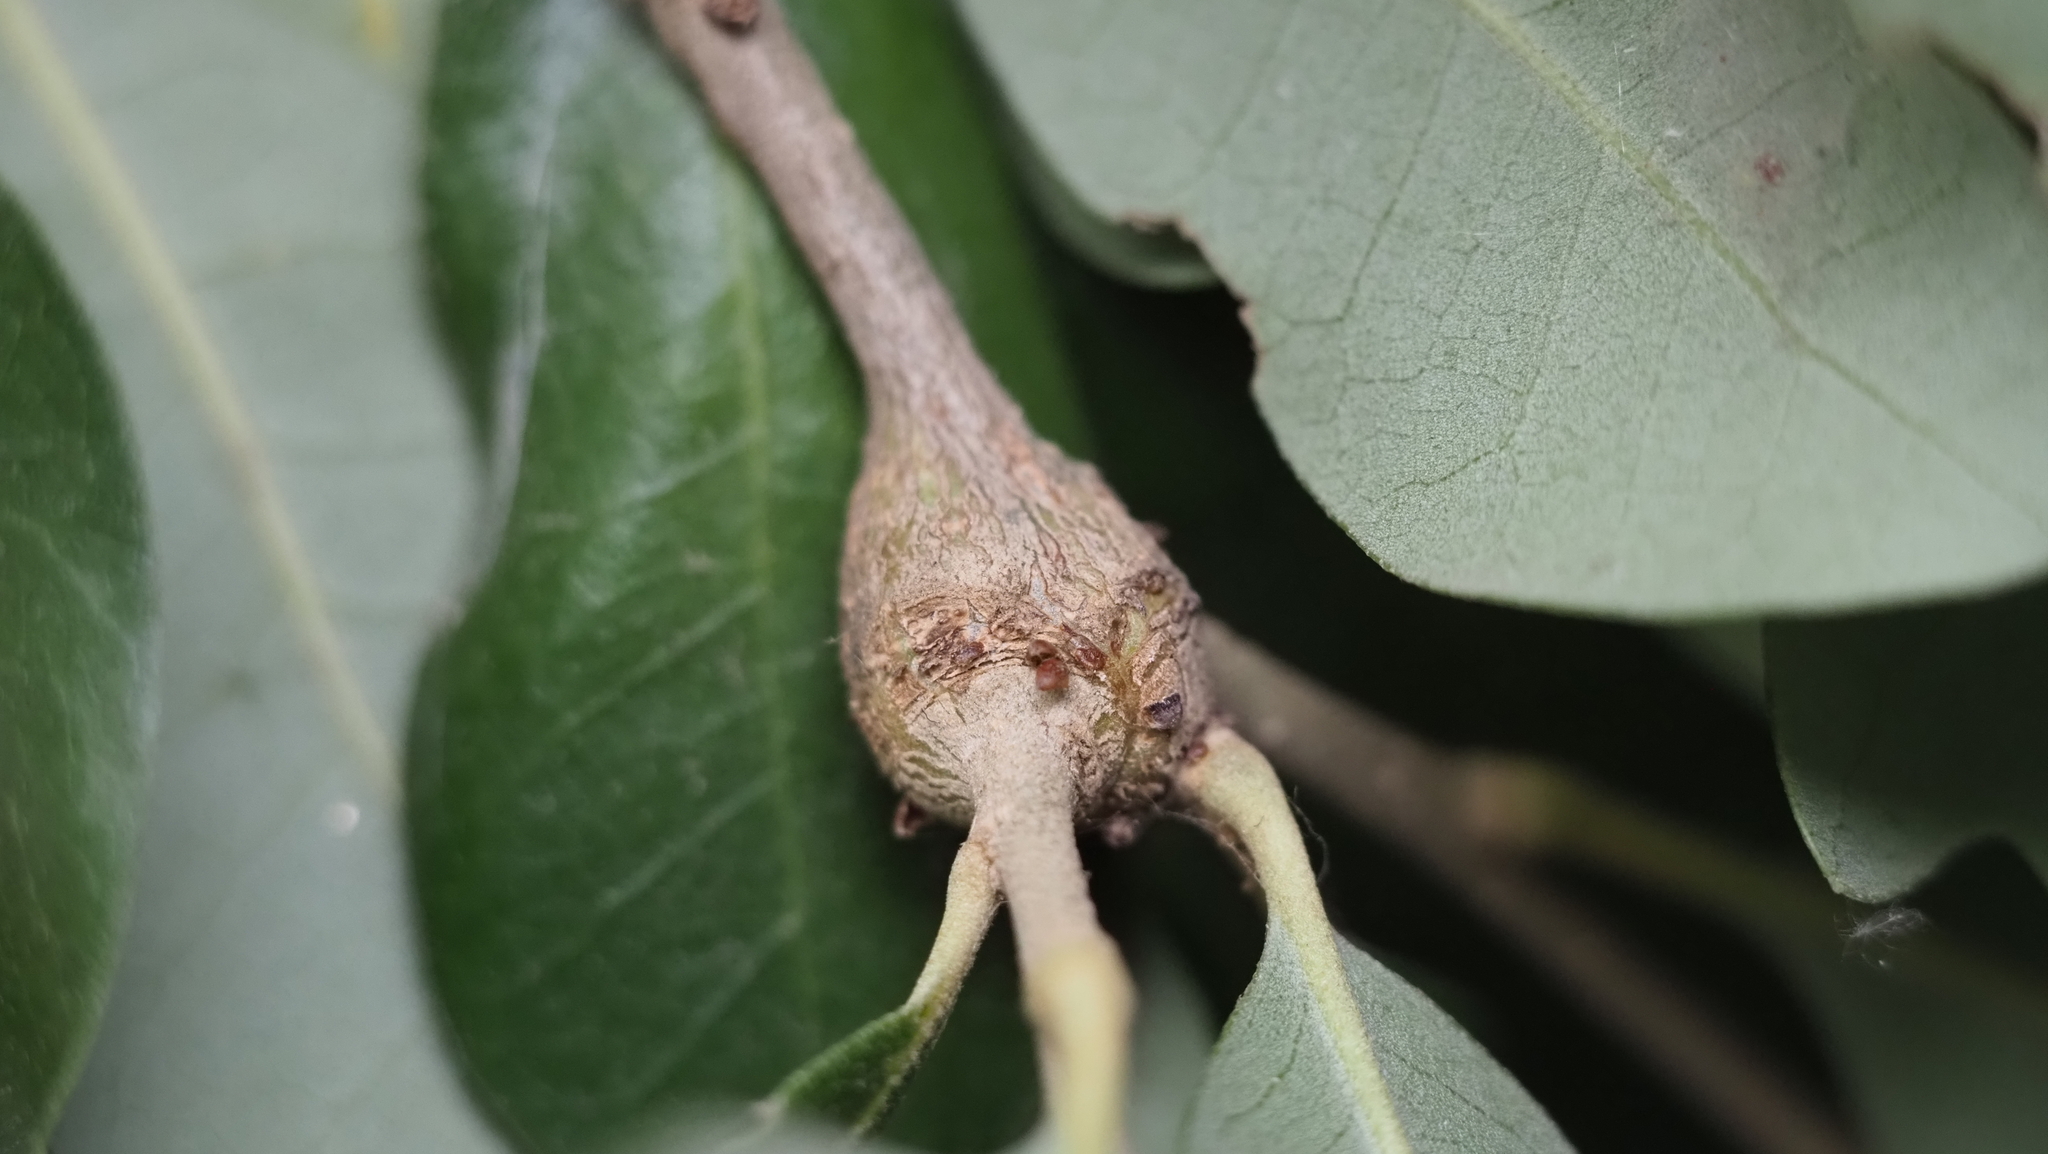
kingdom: Animalia
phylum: Arthropoda
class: Insecta
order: Hymenoptera
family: Cynipidae
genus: Callirhytis
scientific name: Callirhytis
